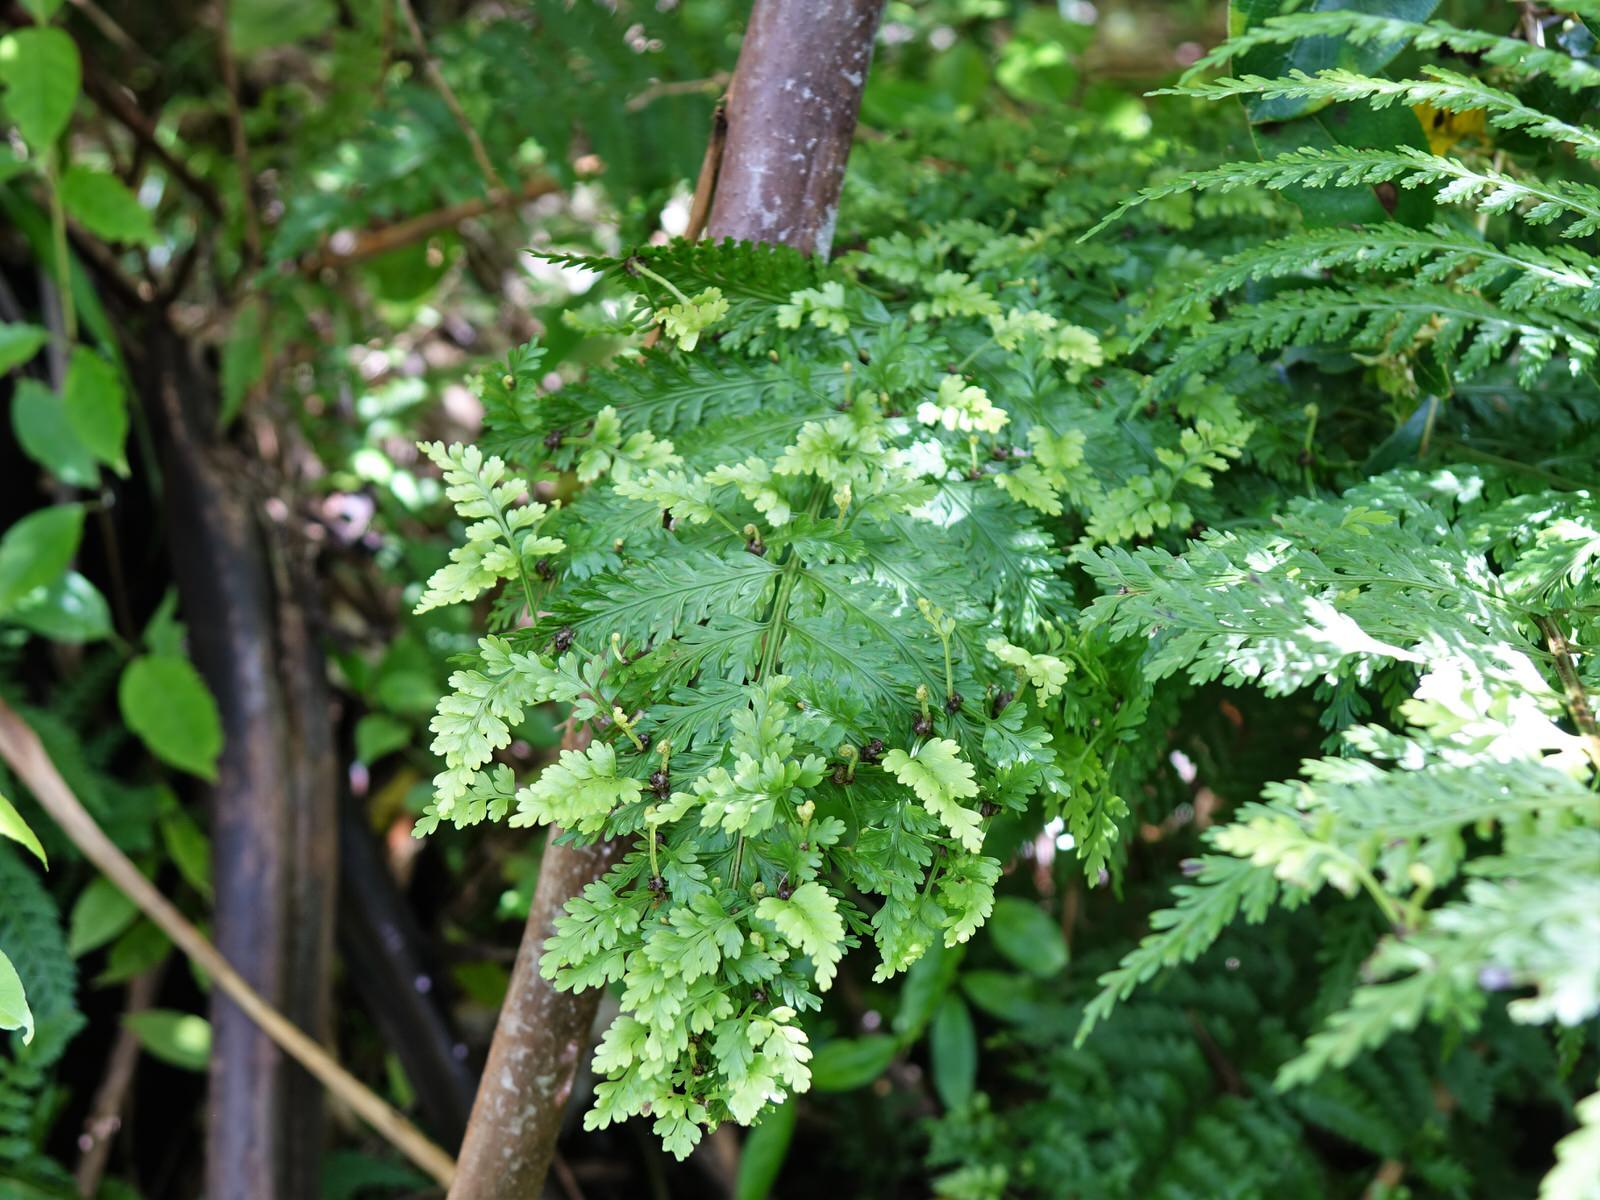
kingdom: Plantae
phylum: Tracheophyta
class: Polypodiopsida
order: Polypodiales
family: Aspleniaceae
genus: Asplenium
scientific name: Asplenium bulbiferum
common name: Mother fern
